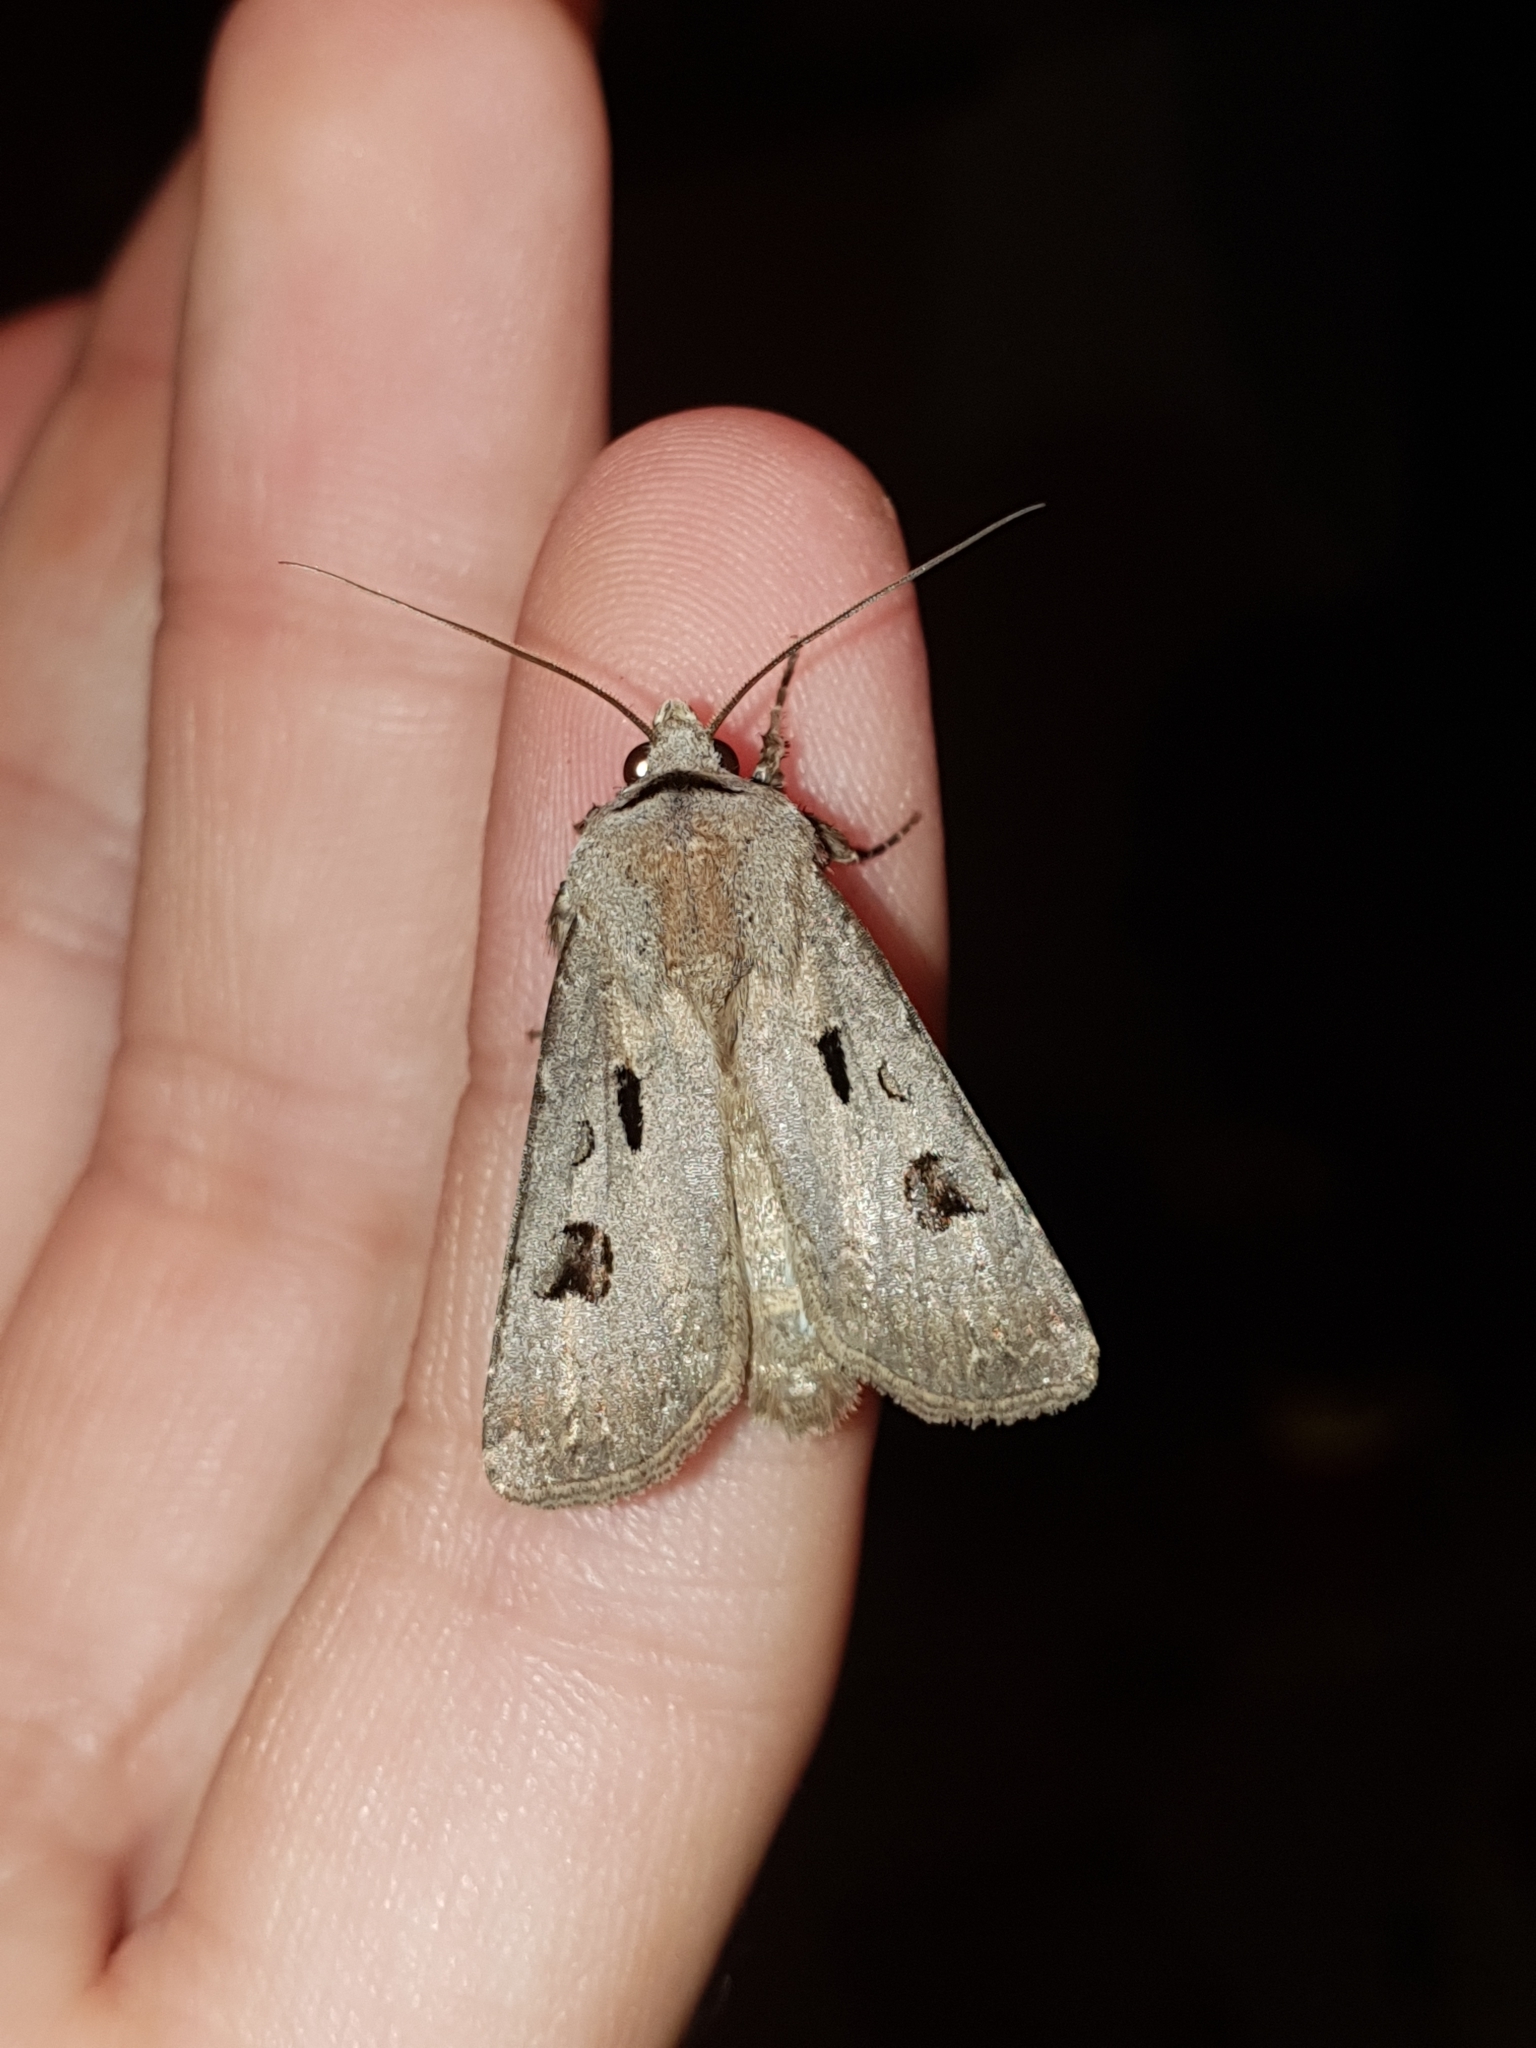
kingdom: Animalia
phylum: Arthropoda
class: Insecta
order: Lepidoptera
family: Noctuidae
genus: Agrotis
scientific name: Agrotis exclamationis
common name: Heart and dart
